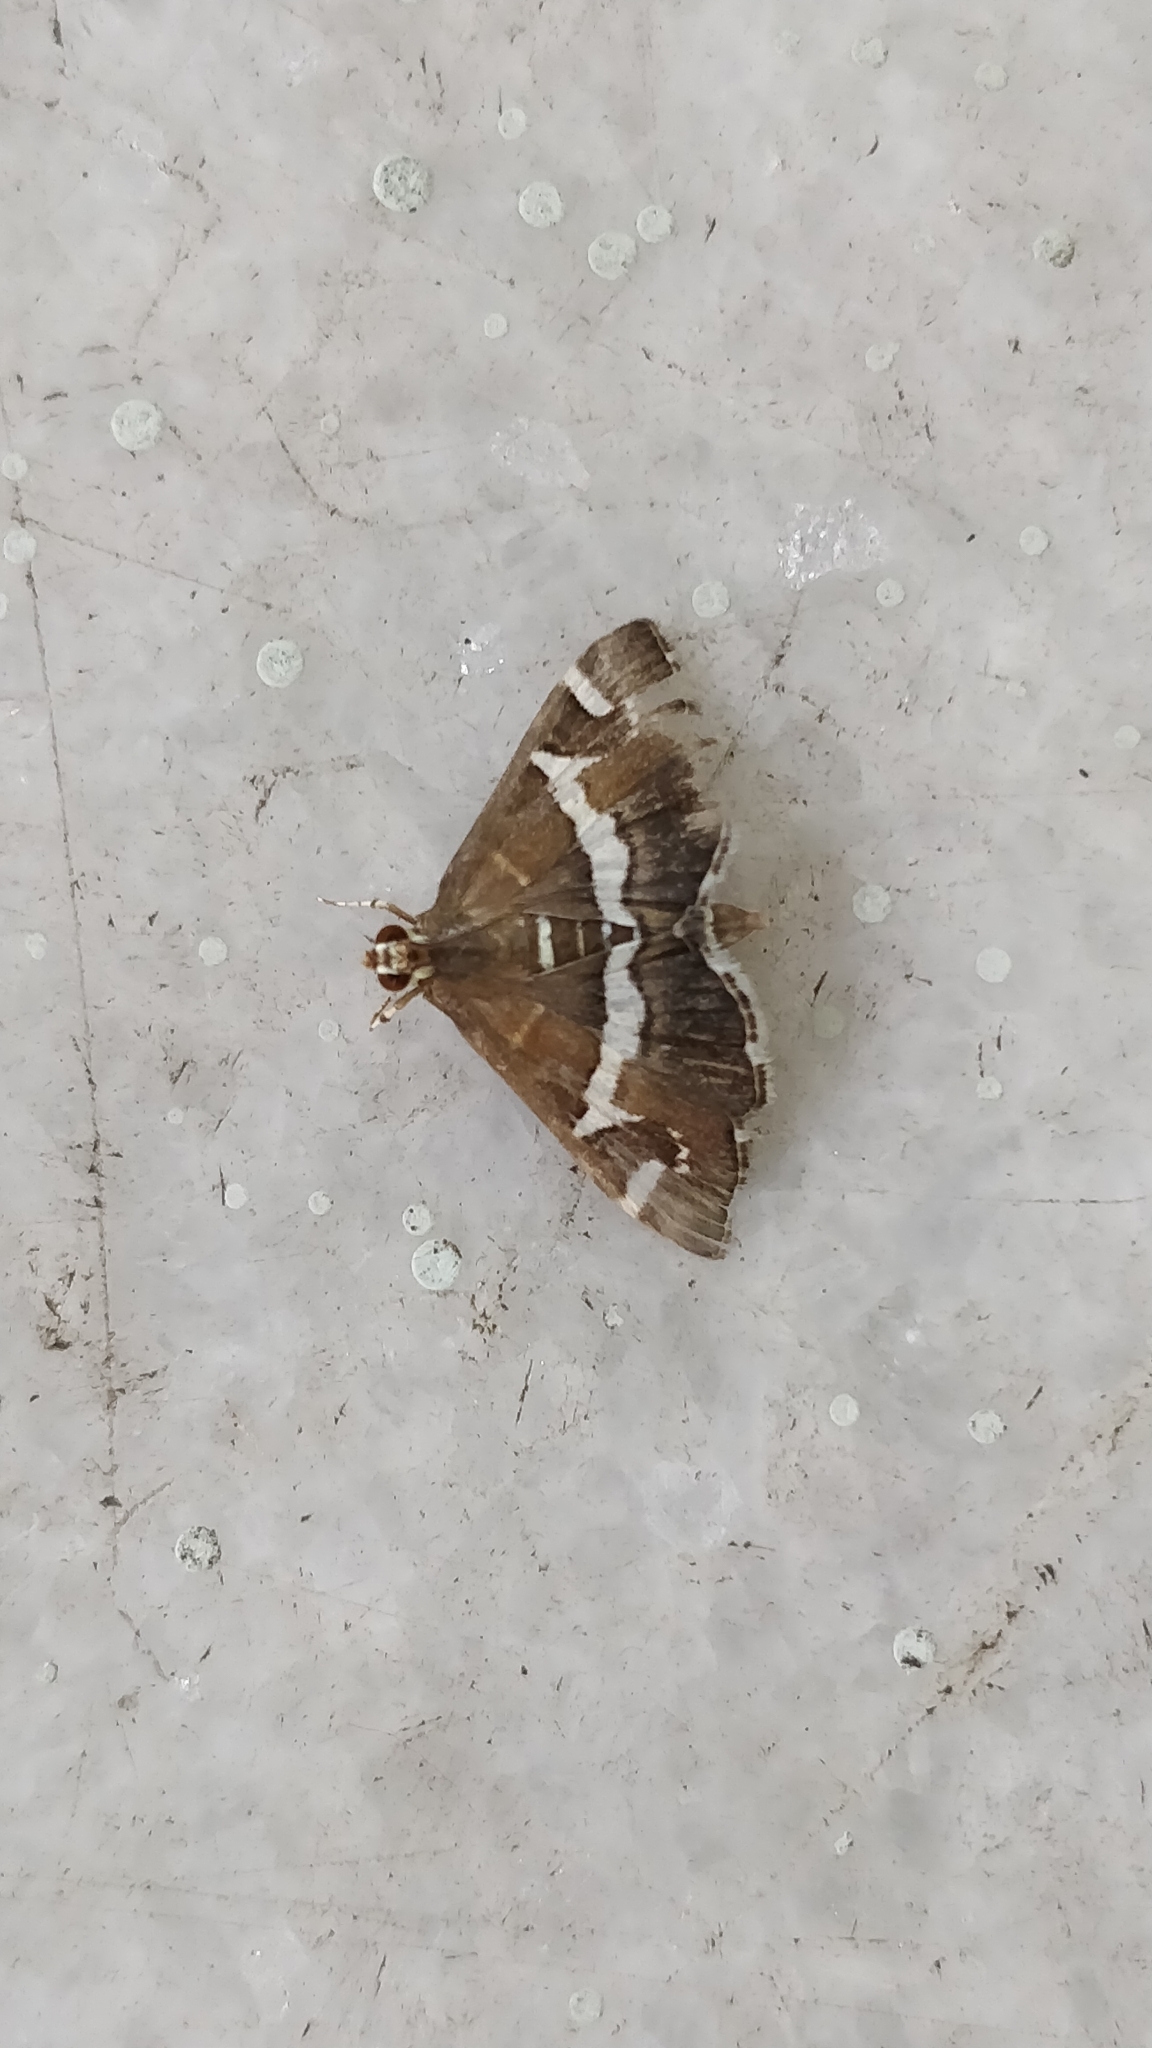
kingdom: Animalia
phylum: Arthropoda
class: Insecta
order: Lepidoptera
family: Crambidae
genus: Spoladea
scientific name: Spoladea recurvalis
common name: Beet webworm moth
